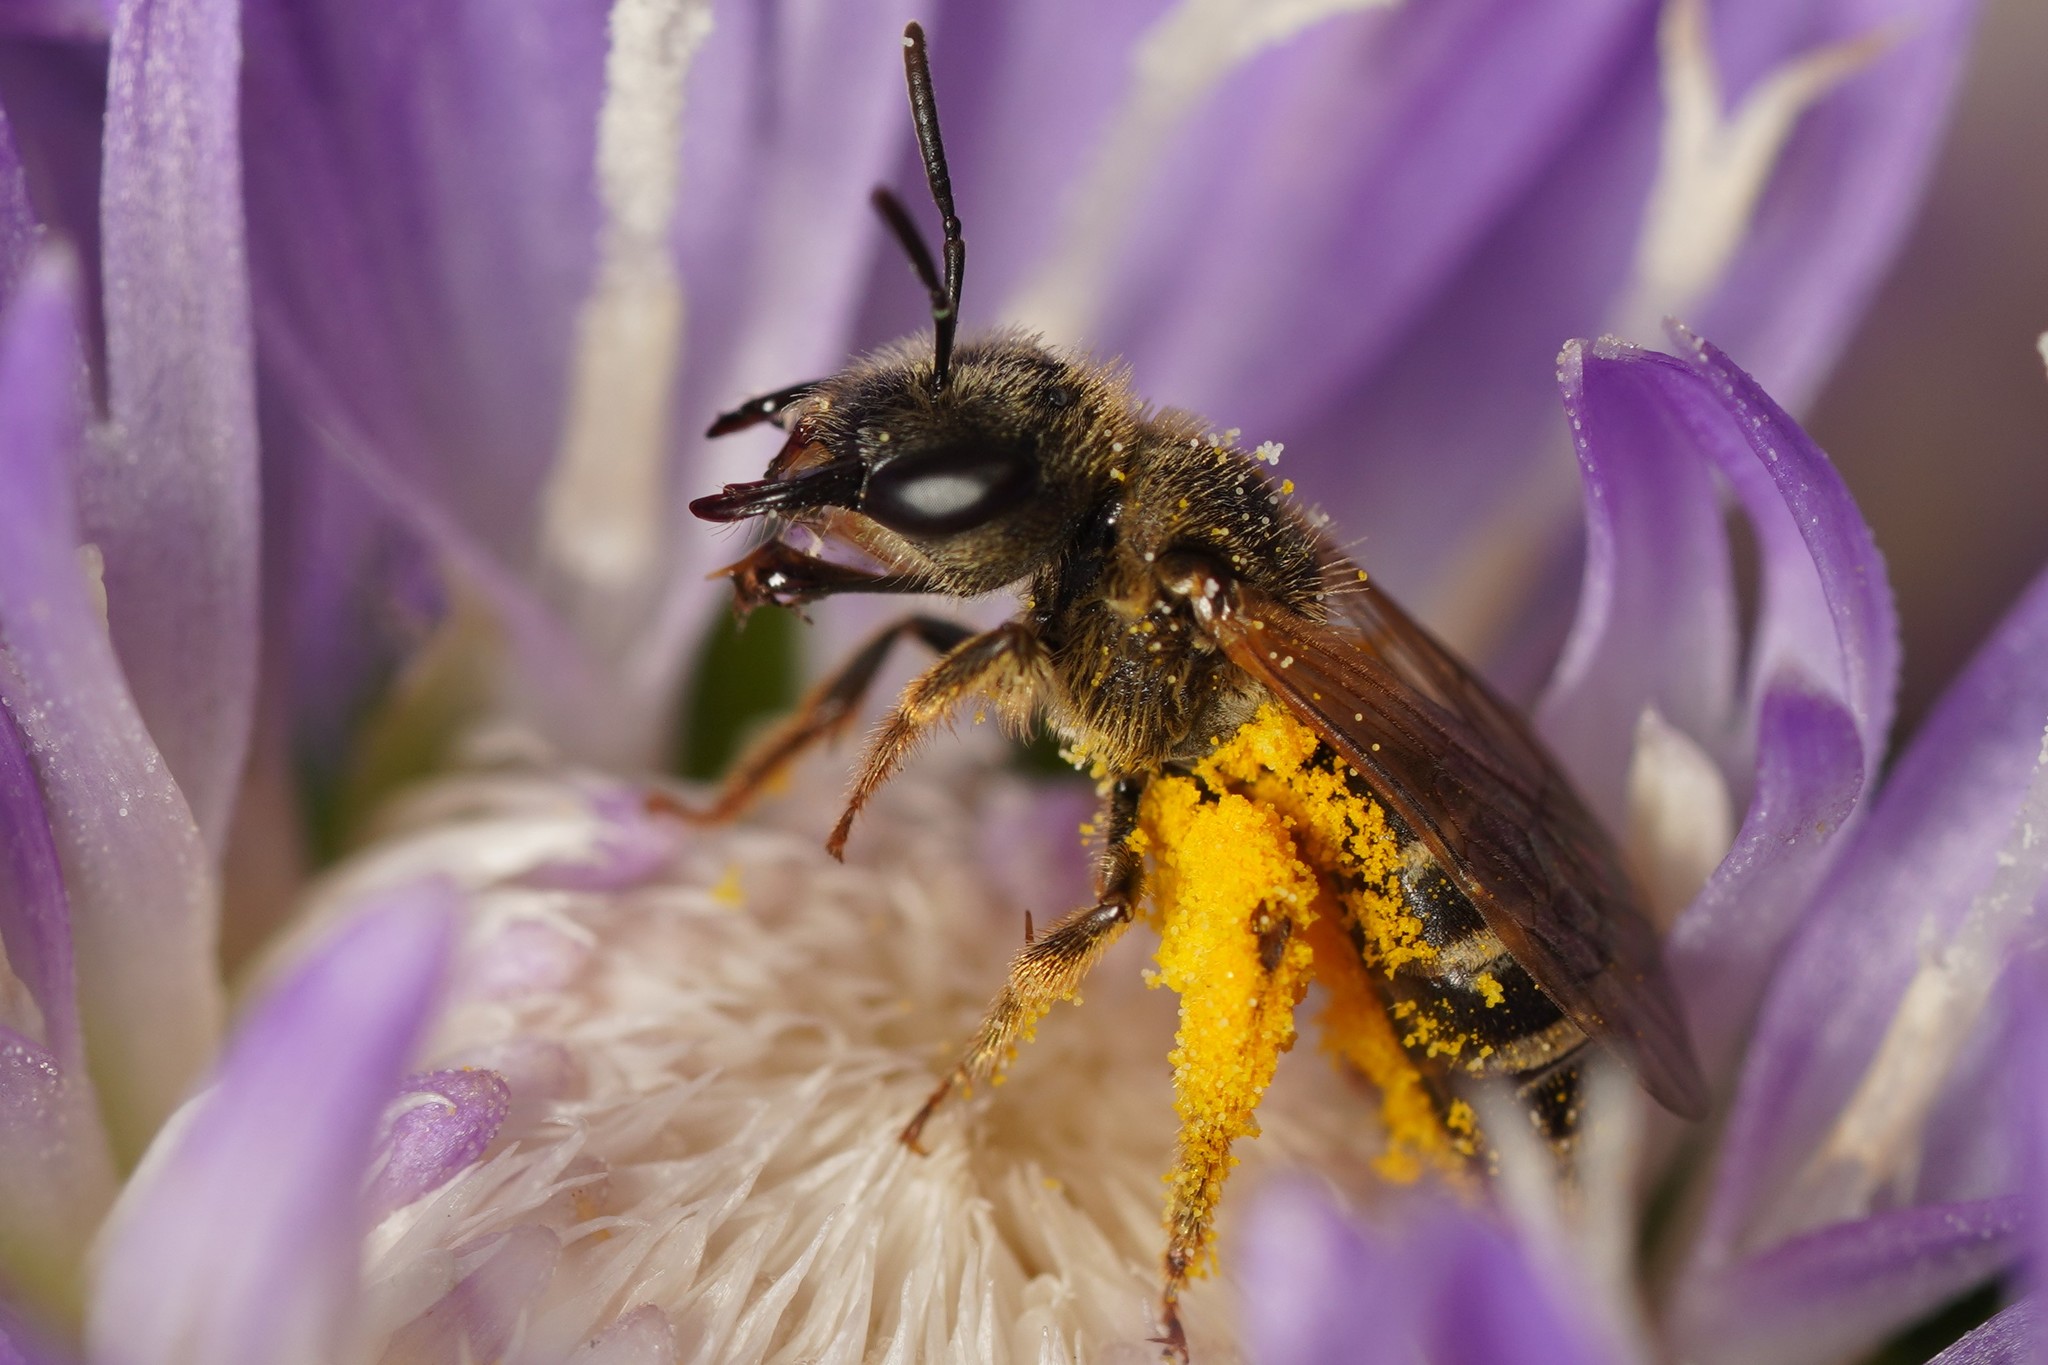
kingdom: Animalia
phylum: Arthropoda
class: Insecta
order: Hymenoptera
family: Halictidae
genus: Halictus
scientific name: Halictus ligatus
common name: Ligated furrow bee
